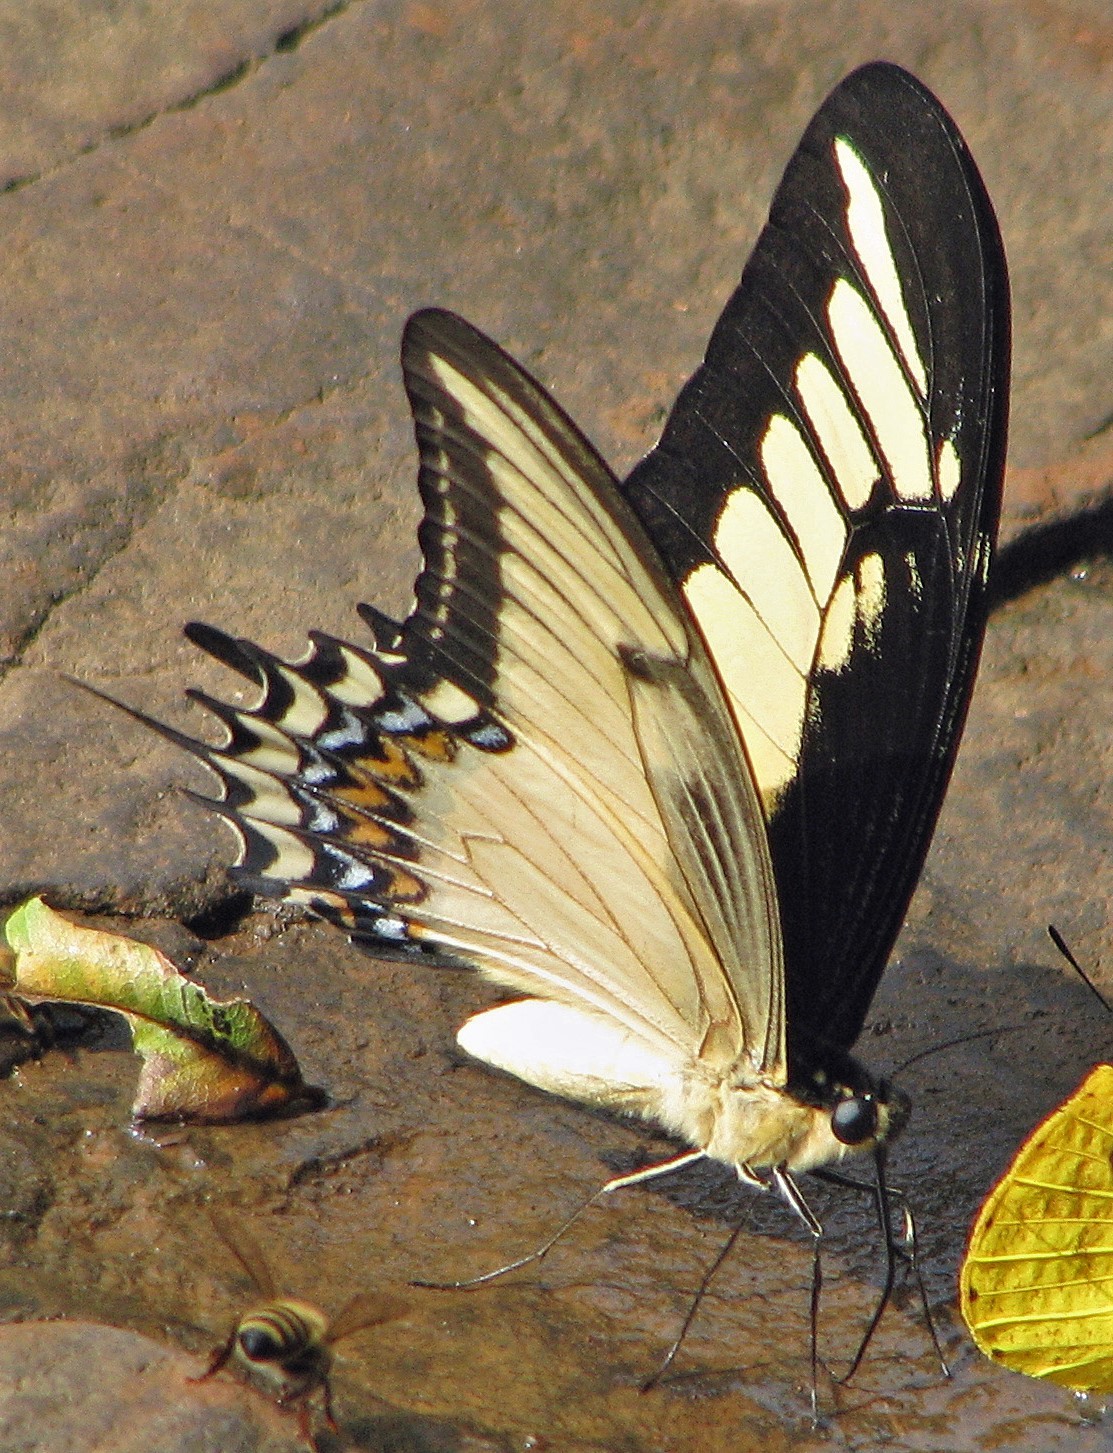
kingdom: Animalia
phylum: Arthropoda
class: Insecta
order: Lepidoptera
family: Papilionidae
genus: Papilio
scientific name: Papilio androgeus
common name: Androgeus swallowtail
